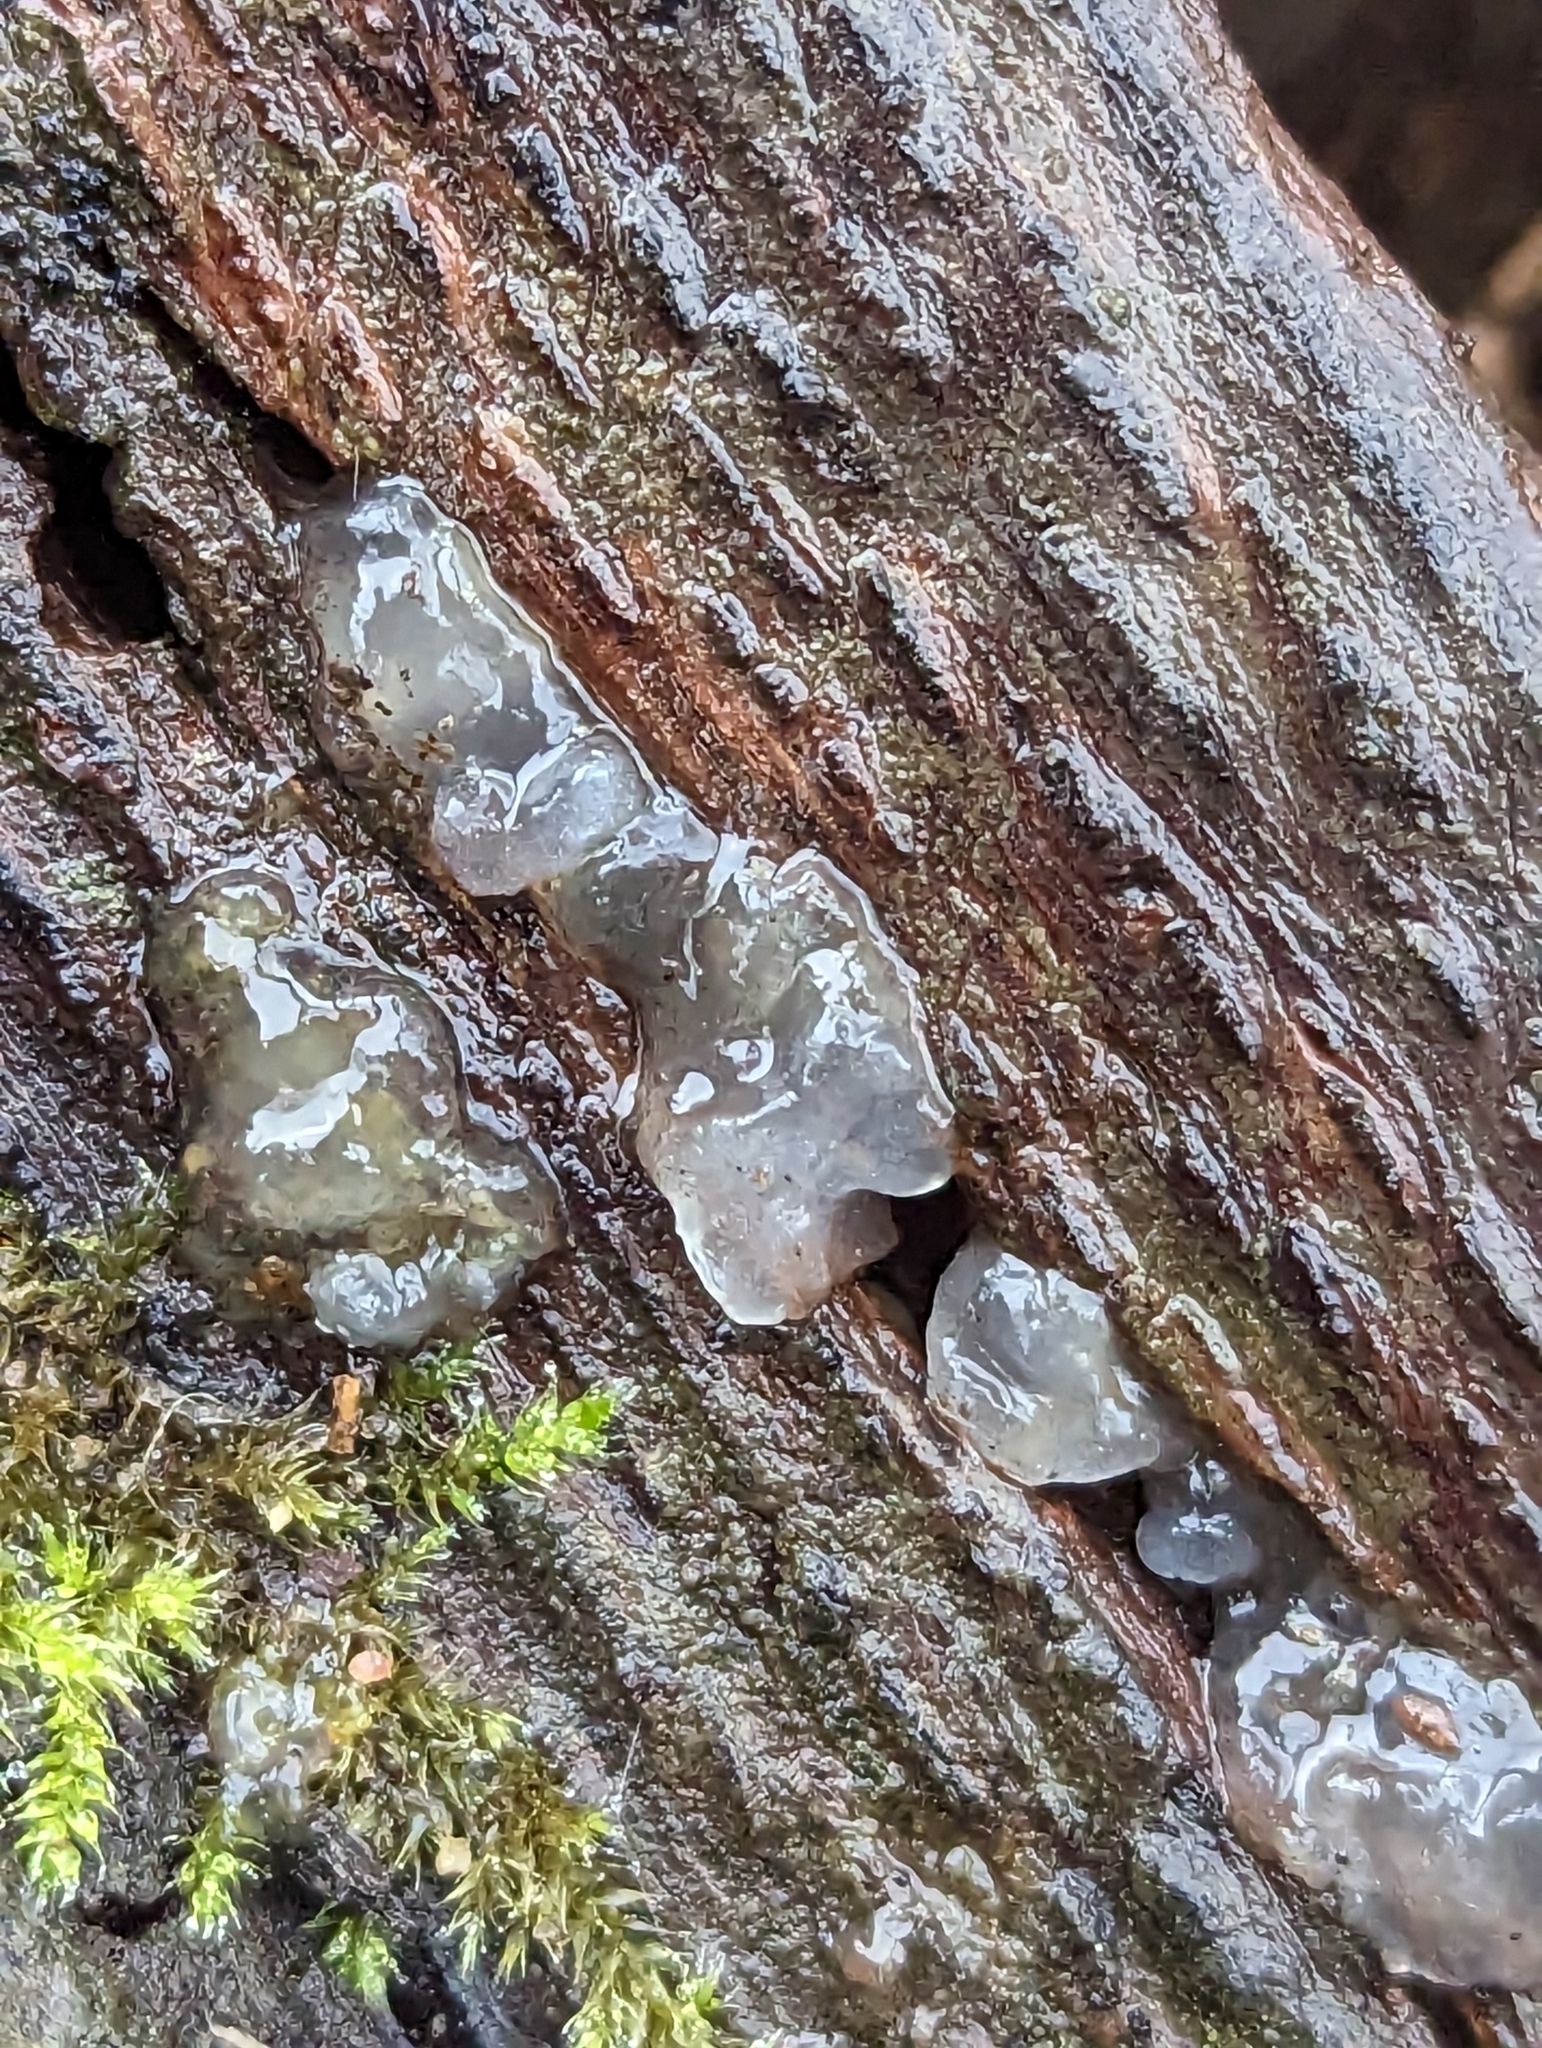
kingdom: Fungi
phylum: Basidiomycota
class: Agaricomycetes
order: Auriculariales
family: Hyaloriaceae
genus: Myxarium
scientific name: Myxarium nucleatum
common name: Crystal brain fungus
